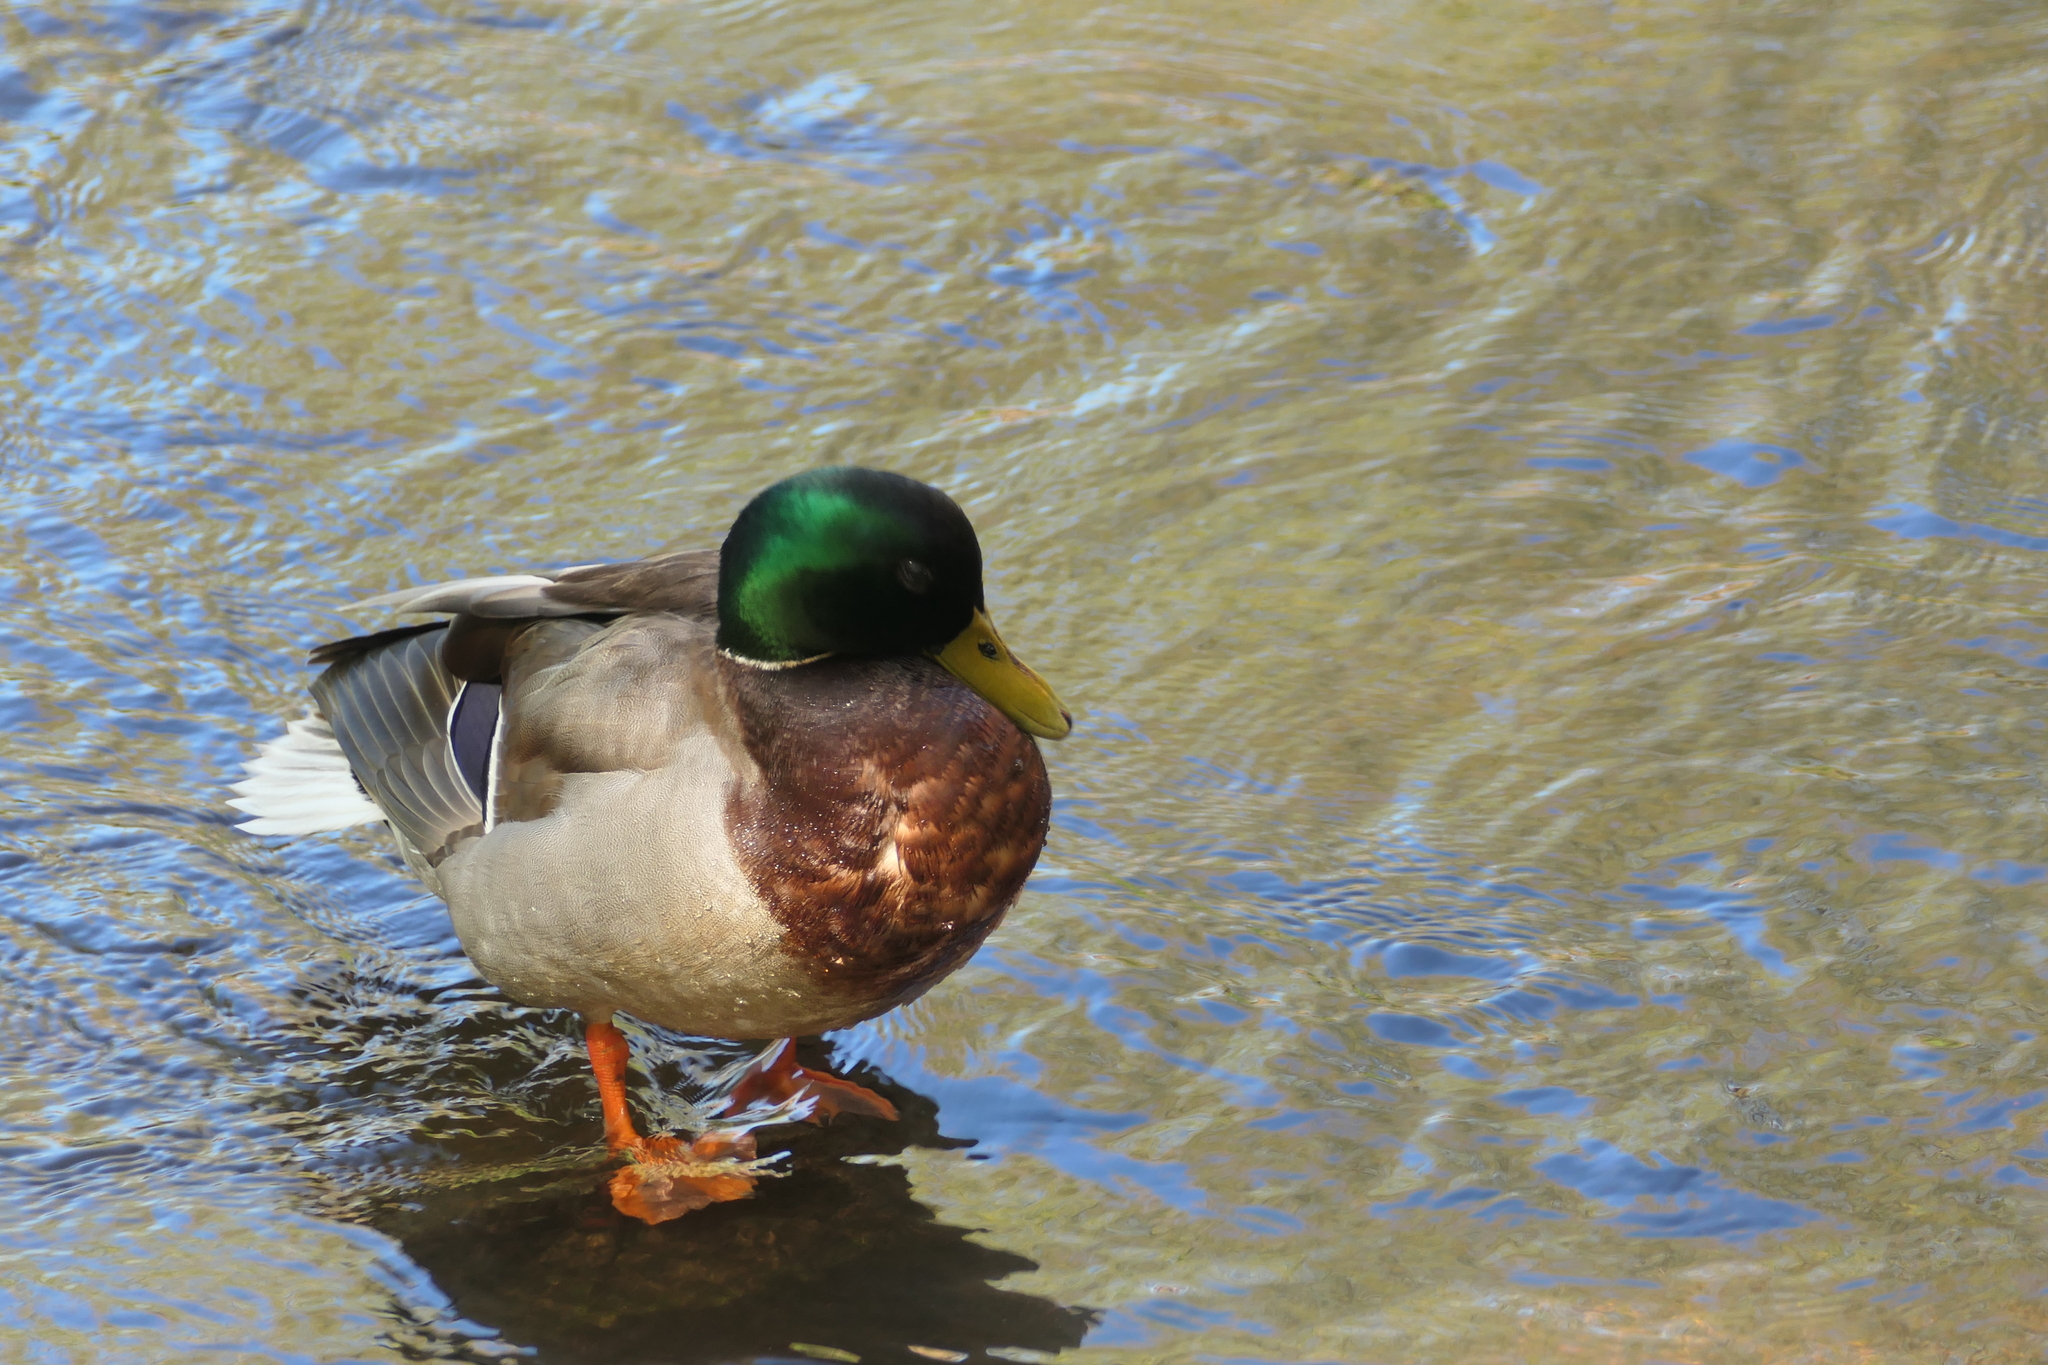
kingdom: Animalia
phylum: Chordata
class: Aves
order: Anseriformes
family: Anatidae
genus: Anas
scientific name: Anas platyrhynchos
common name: Mallard
